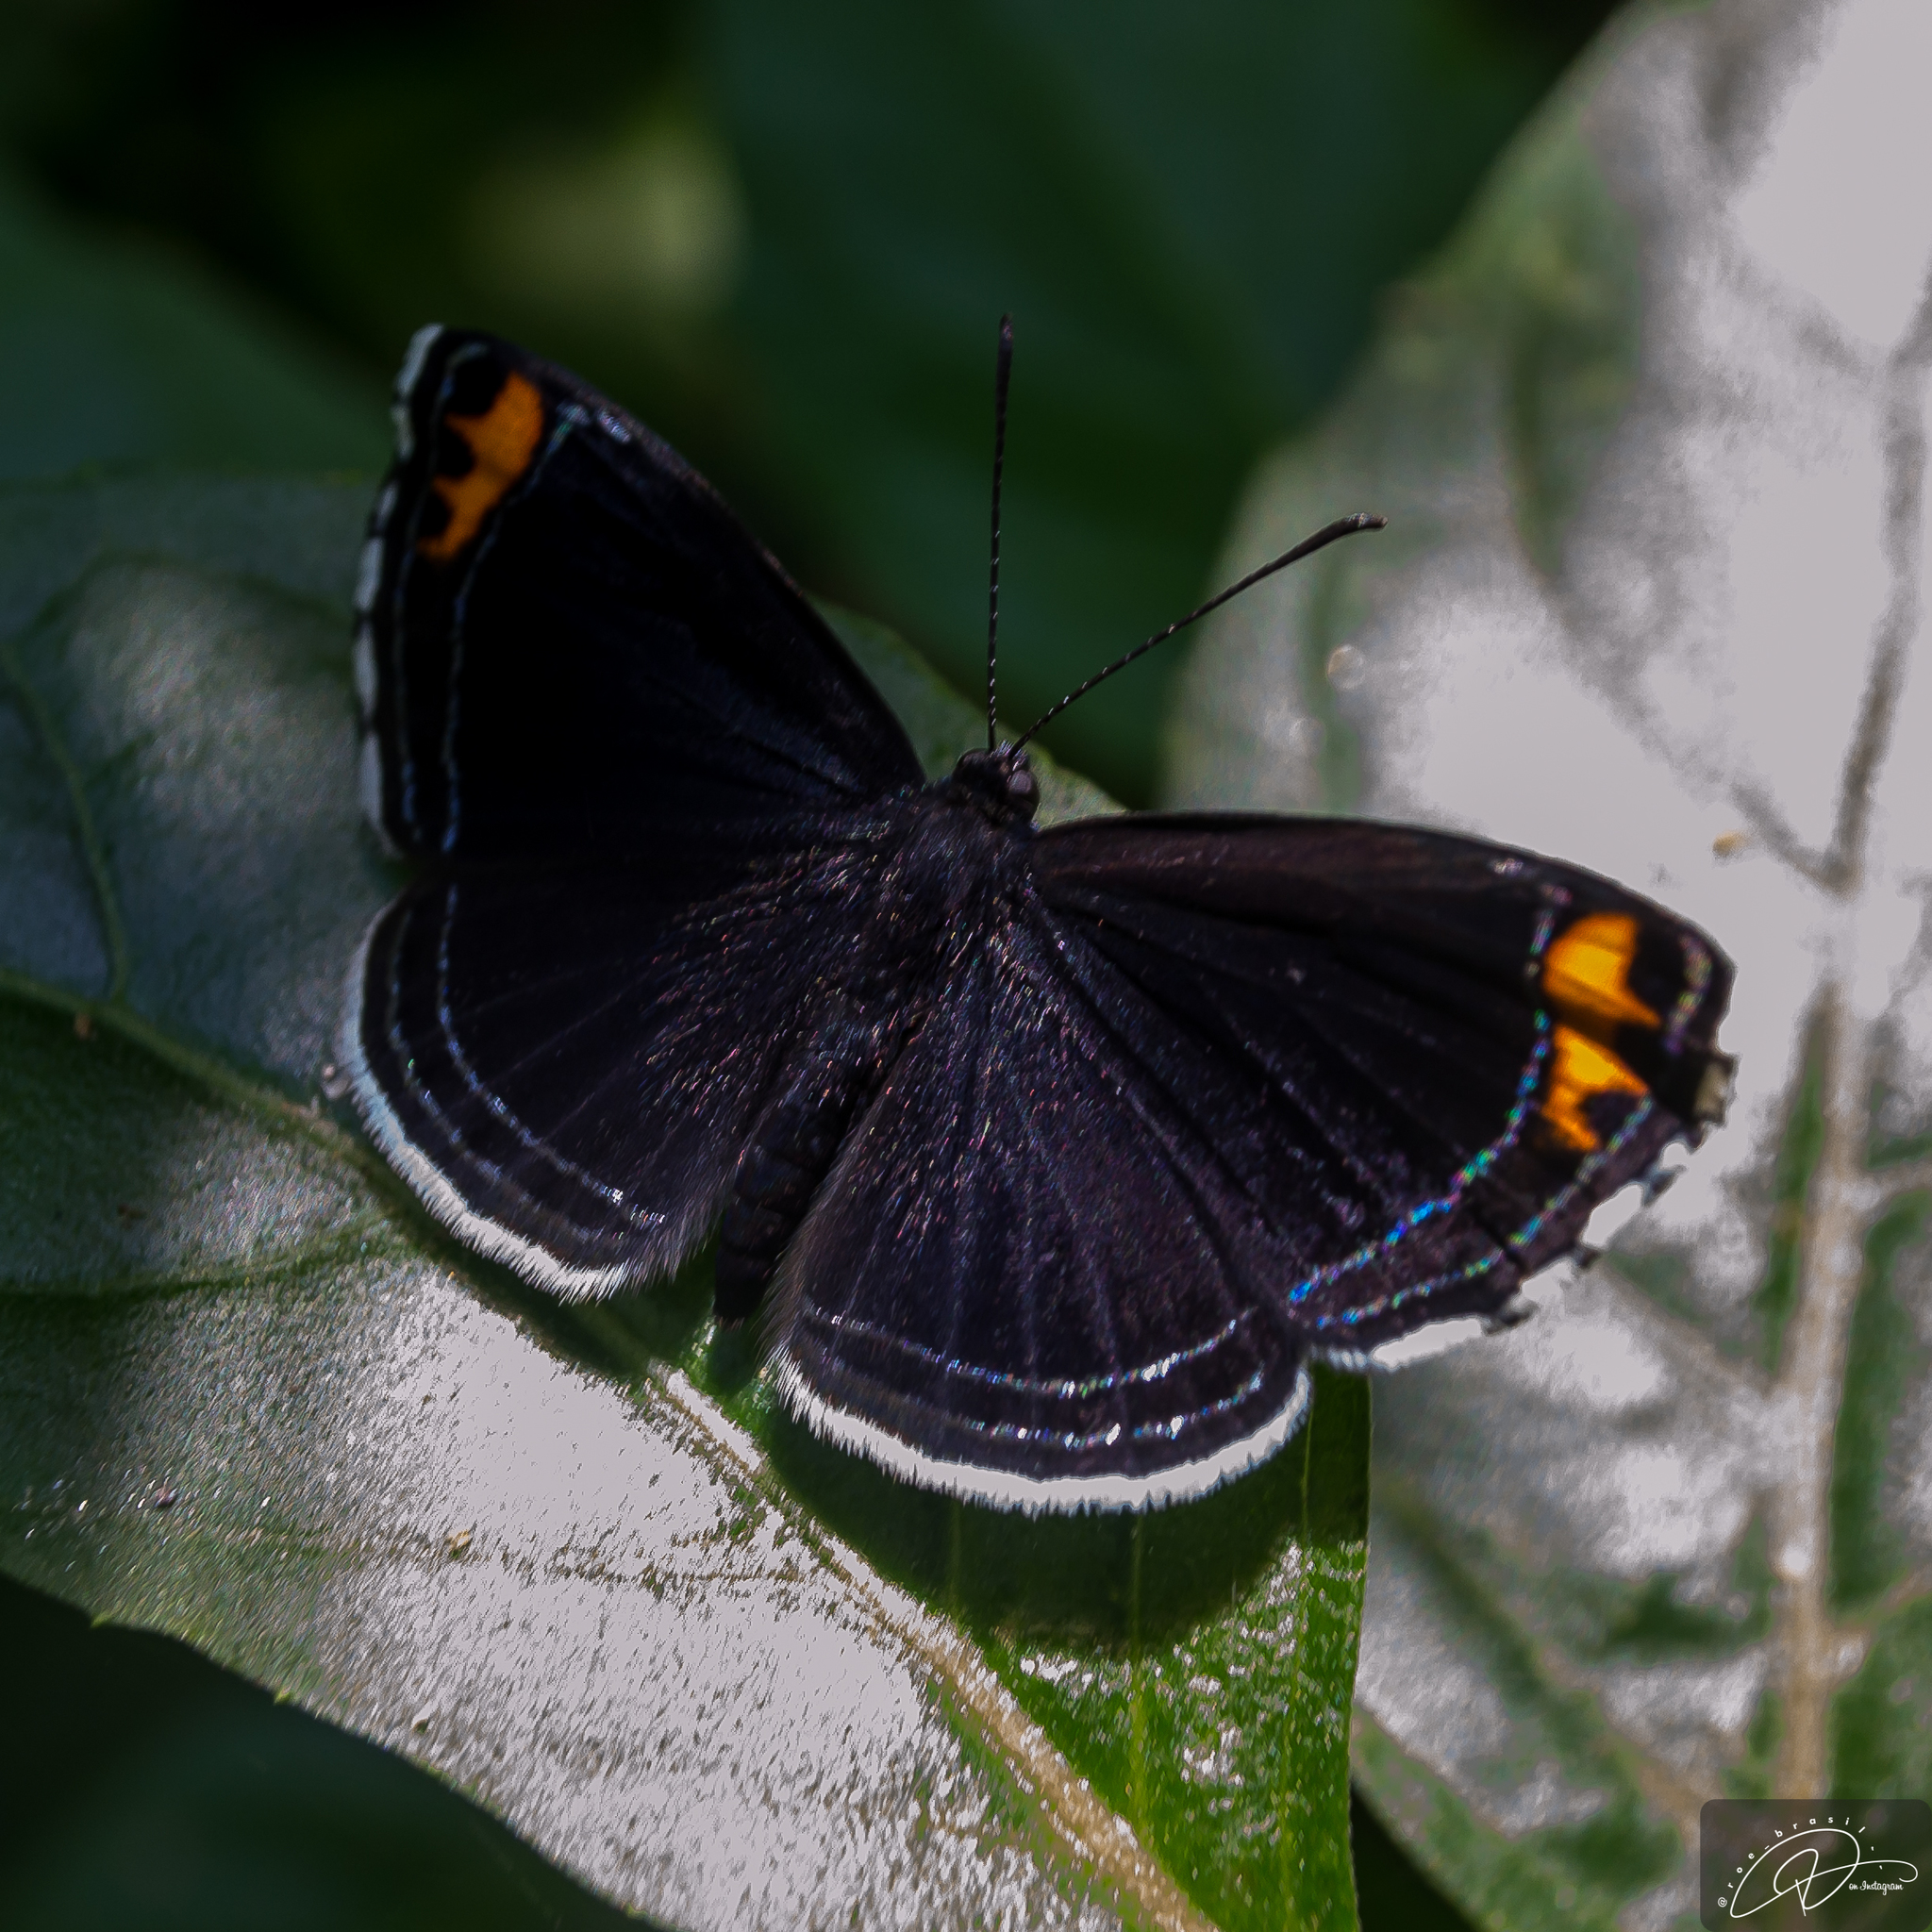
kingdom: Animalia
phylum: Arthropoda
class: Insecta
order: Lepidoptera
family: Riodinidae
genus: Nelone
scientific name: Nelone cadmeis
